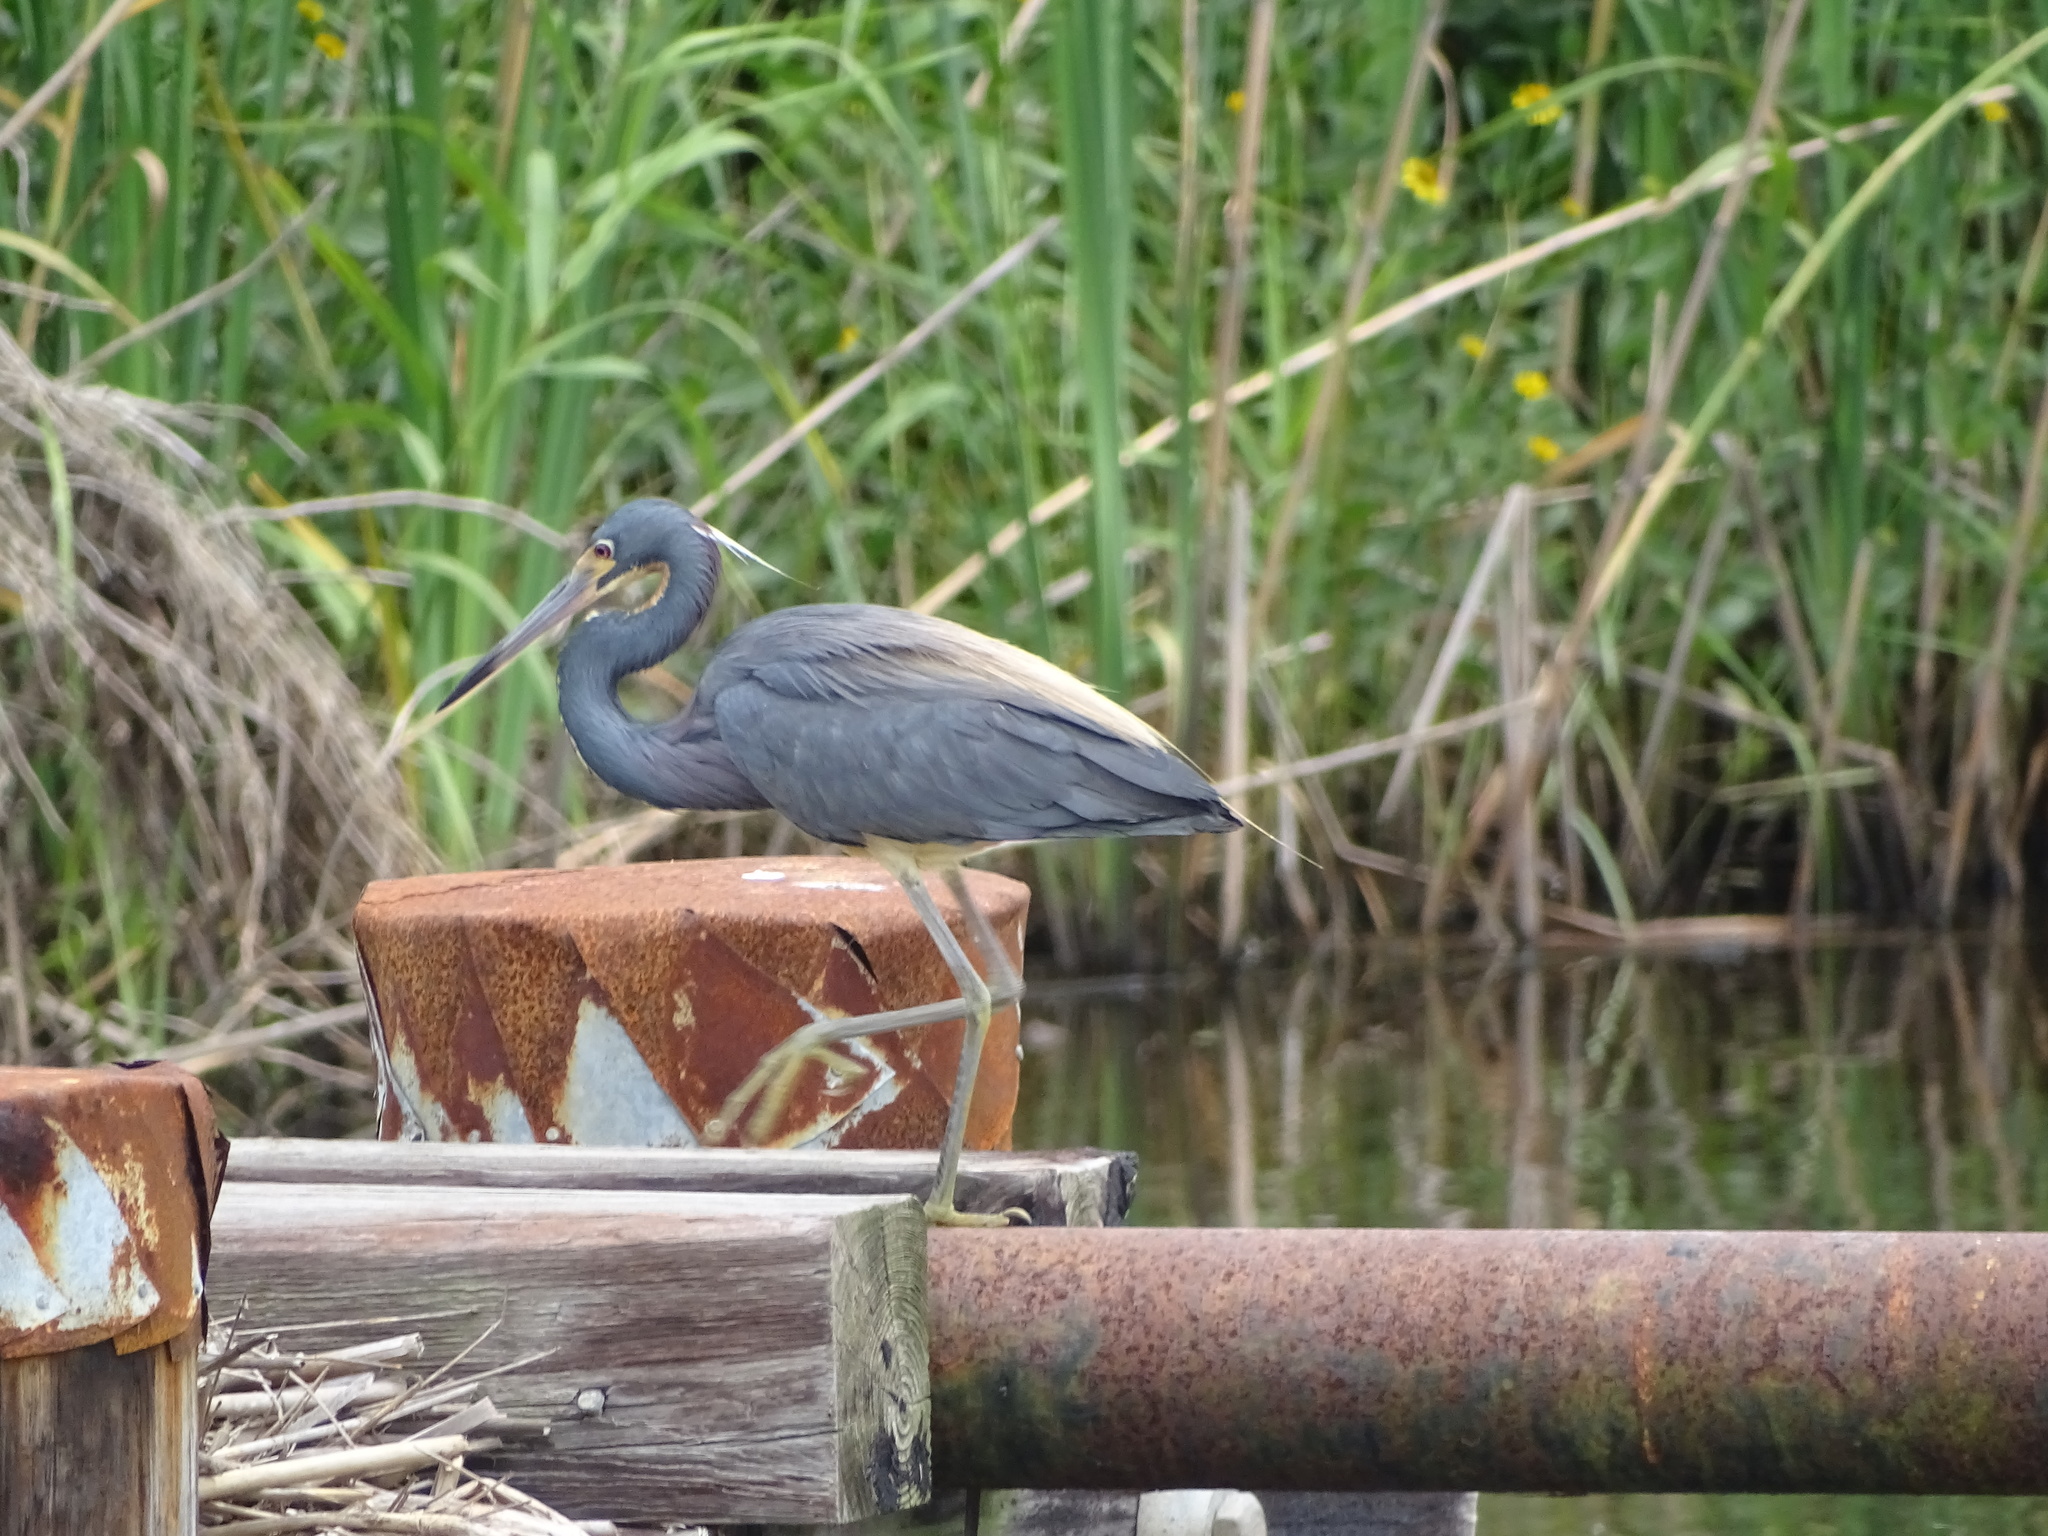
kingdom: Animalia
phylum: Chordata
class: Aves
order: Pelecaniformes
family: Ardeidae
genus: Egretta
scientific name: Egretta tricolor
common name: Tricolored heron
